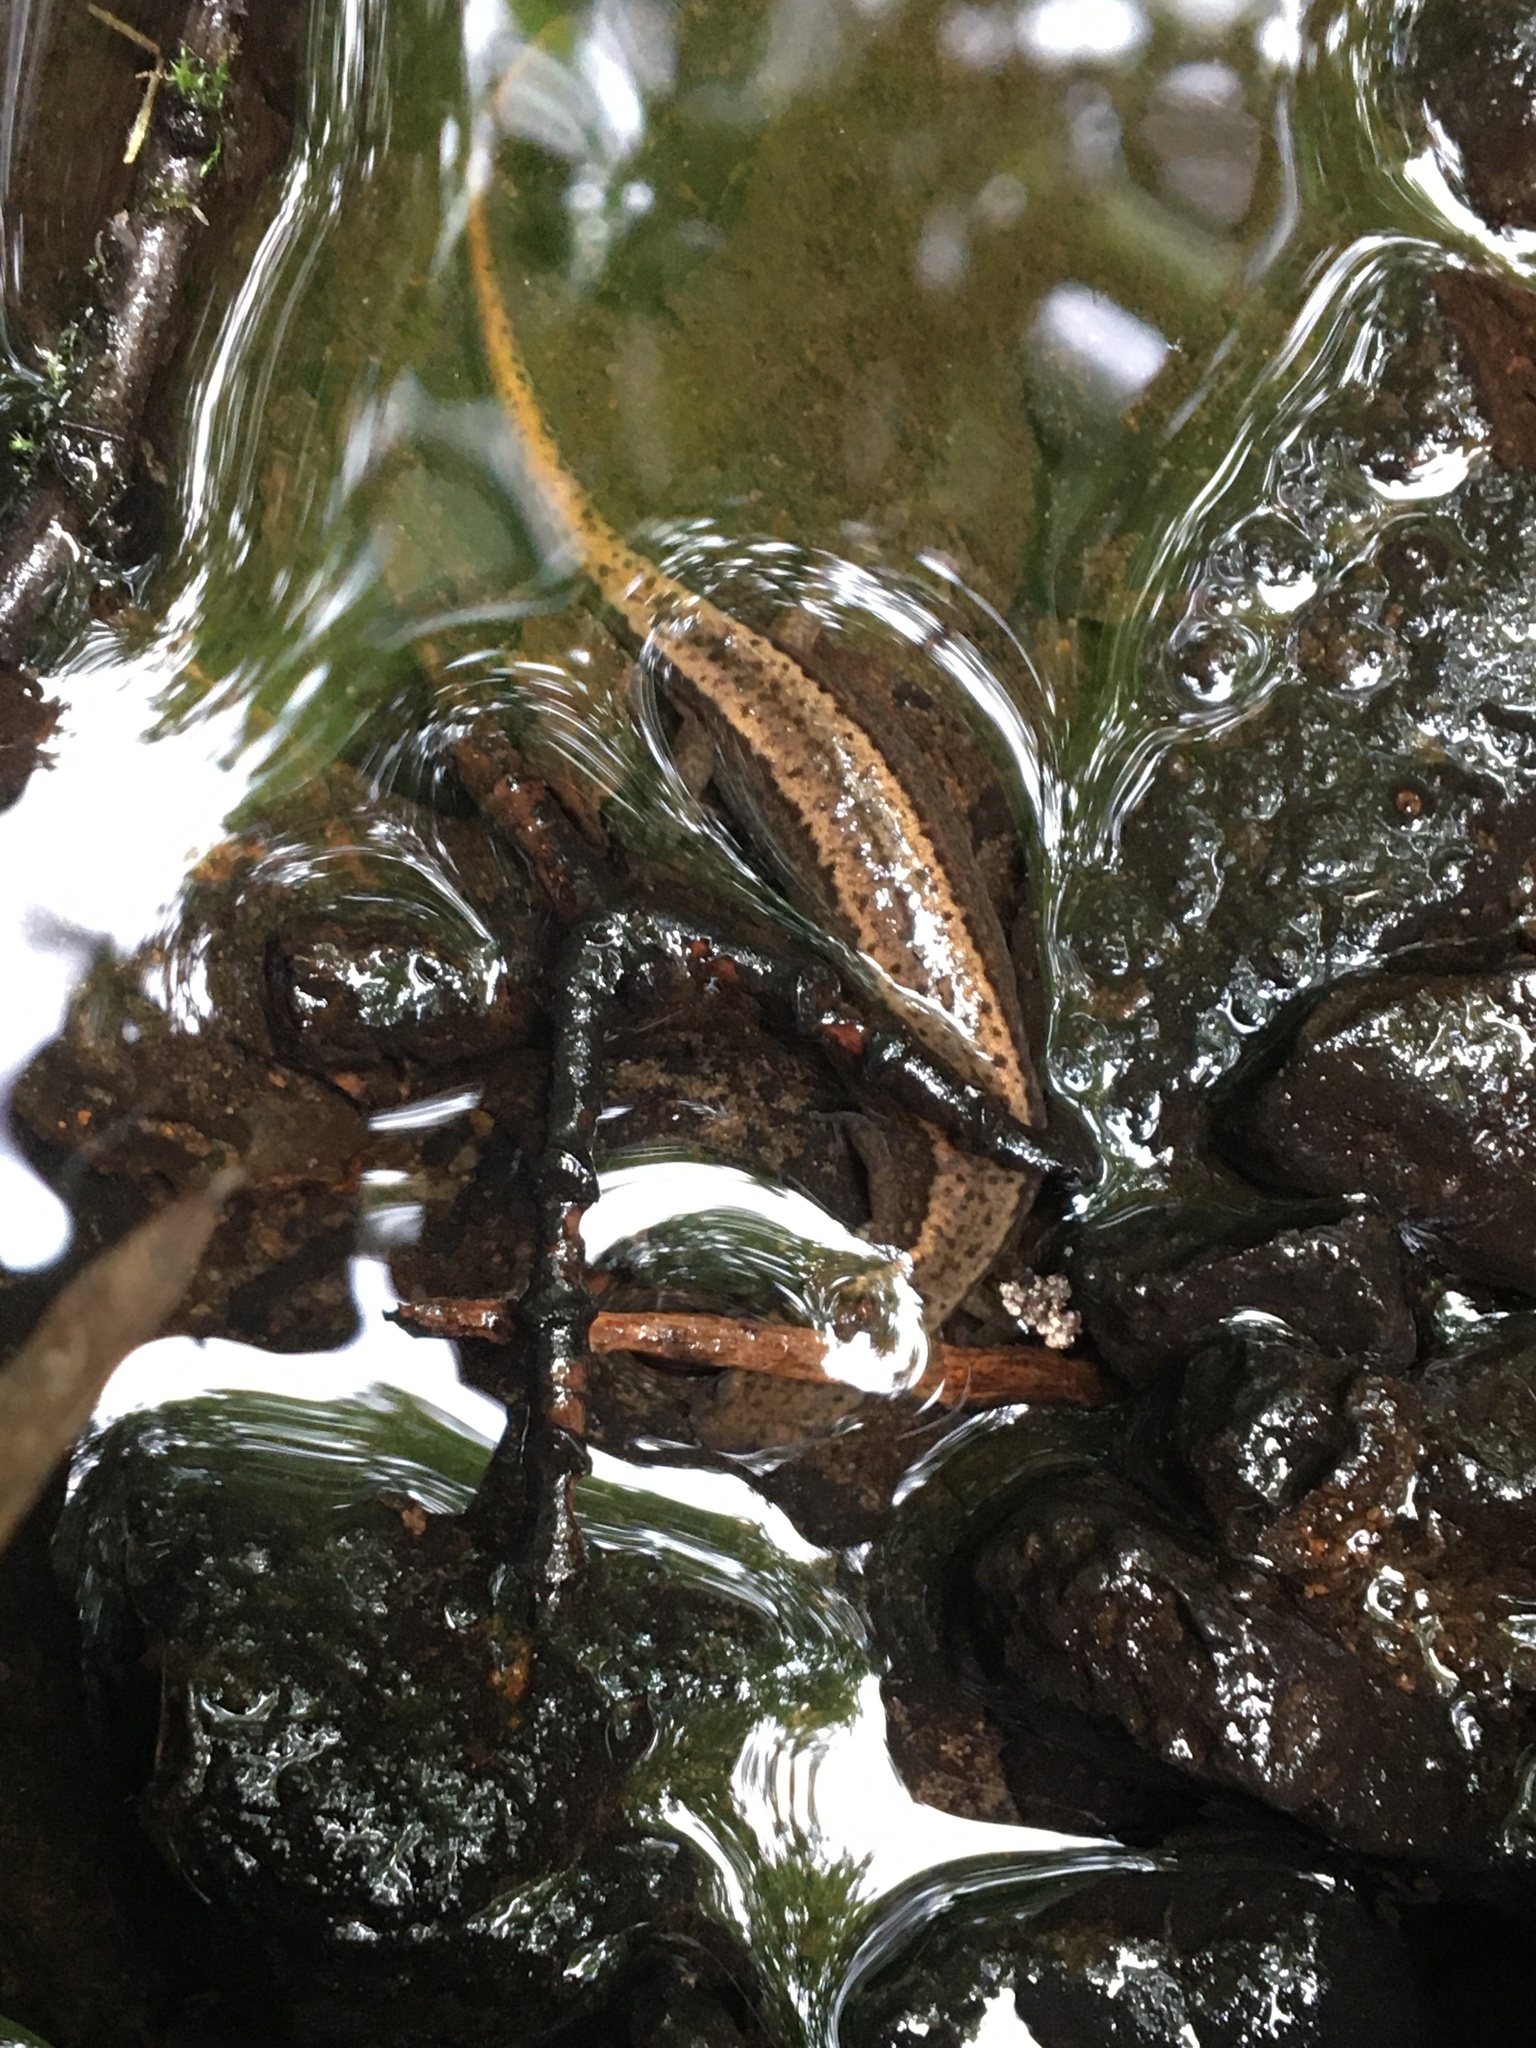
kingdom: Animalia
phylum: Chordata
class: Amphibia
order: Caudata
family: Plethodontidae
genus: Eurycea
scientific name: Eurycea bislineata
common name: Northern two-lined salamander
